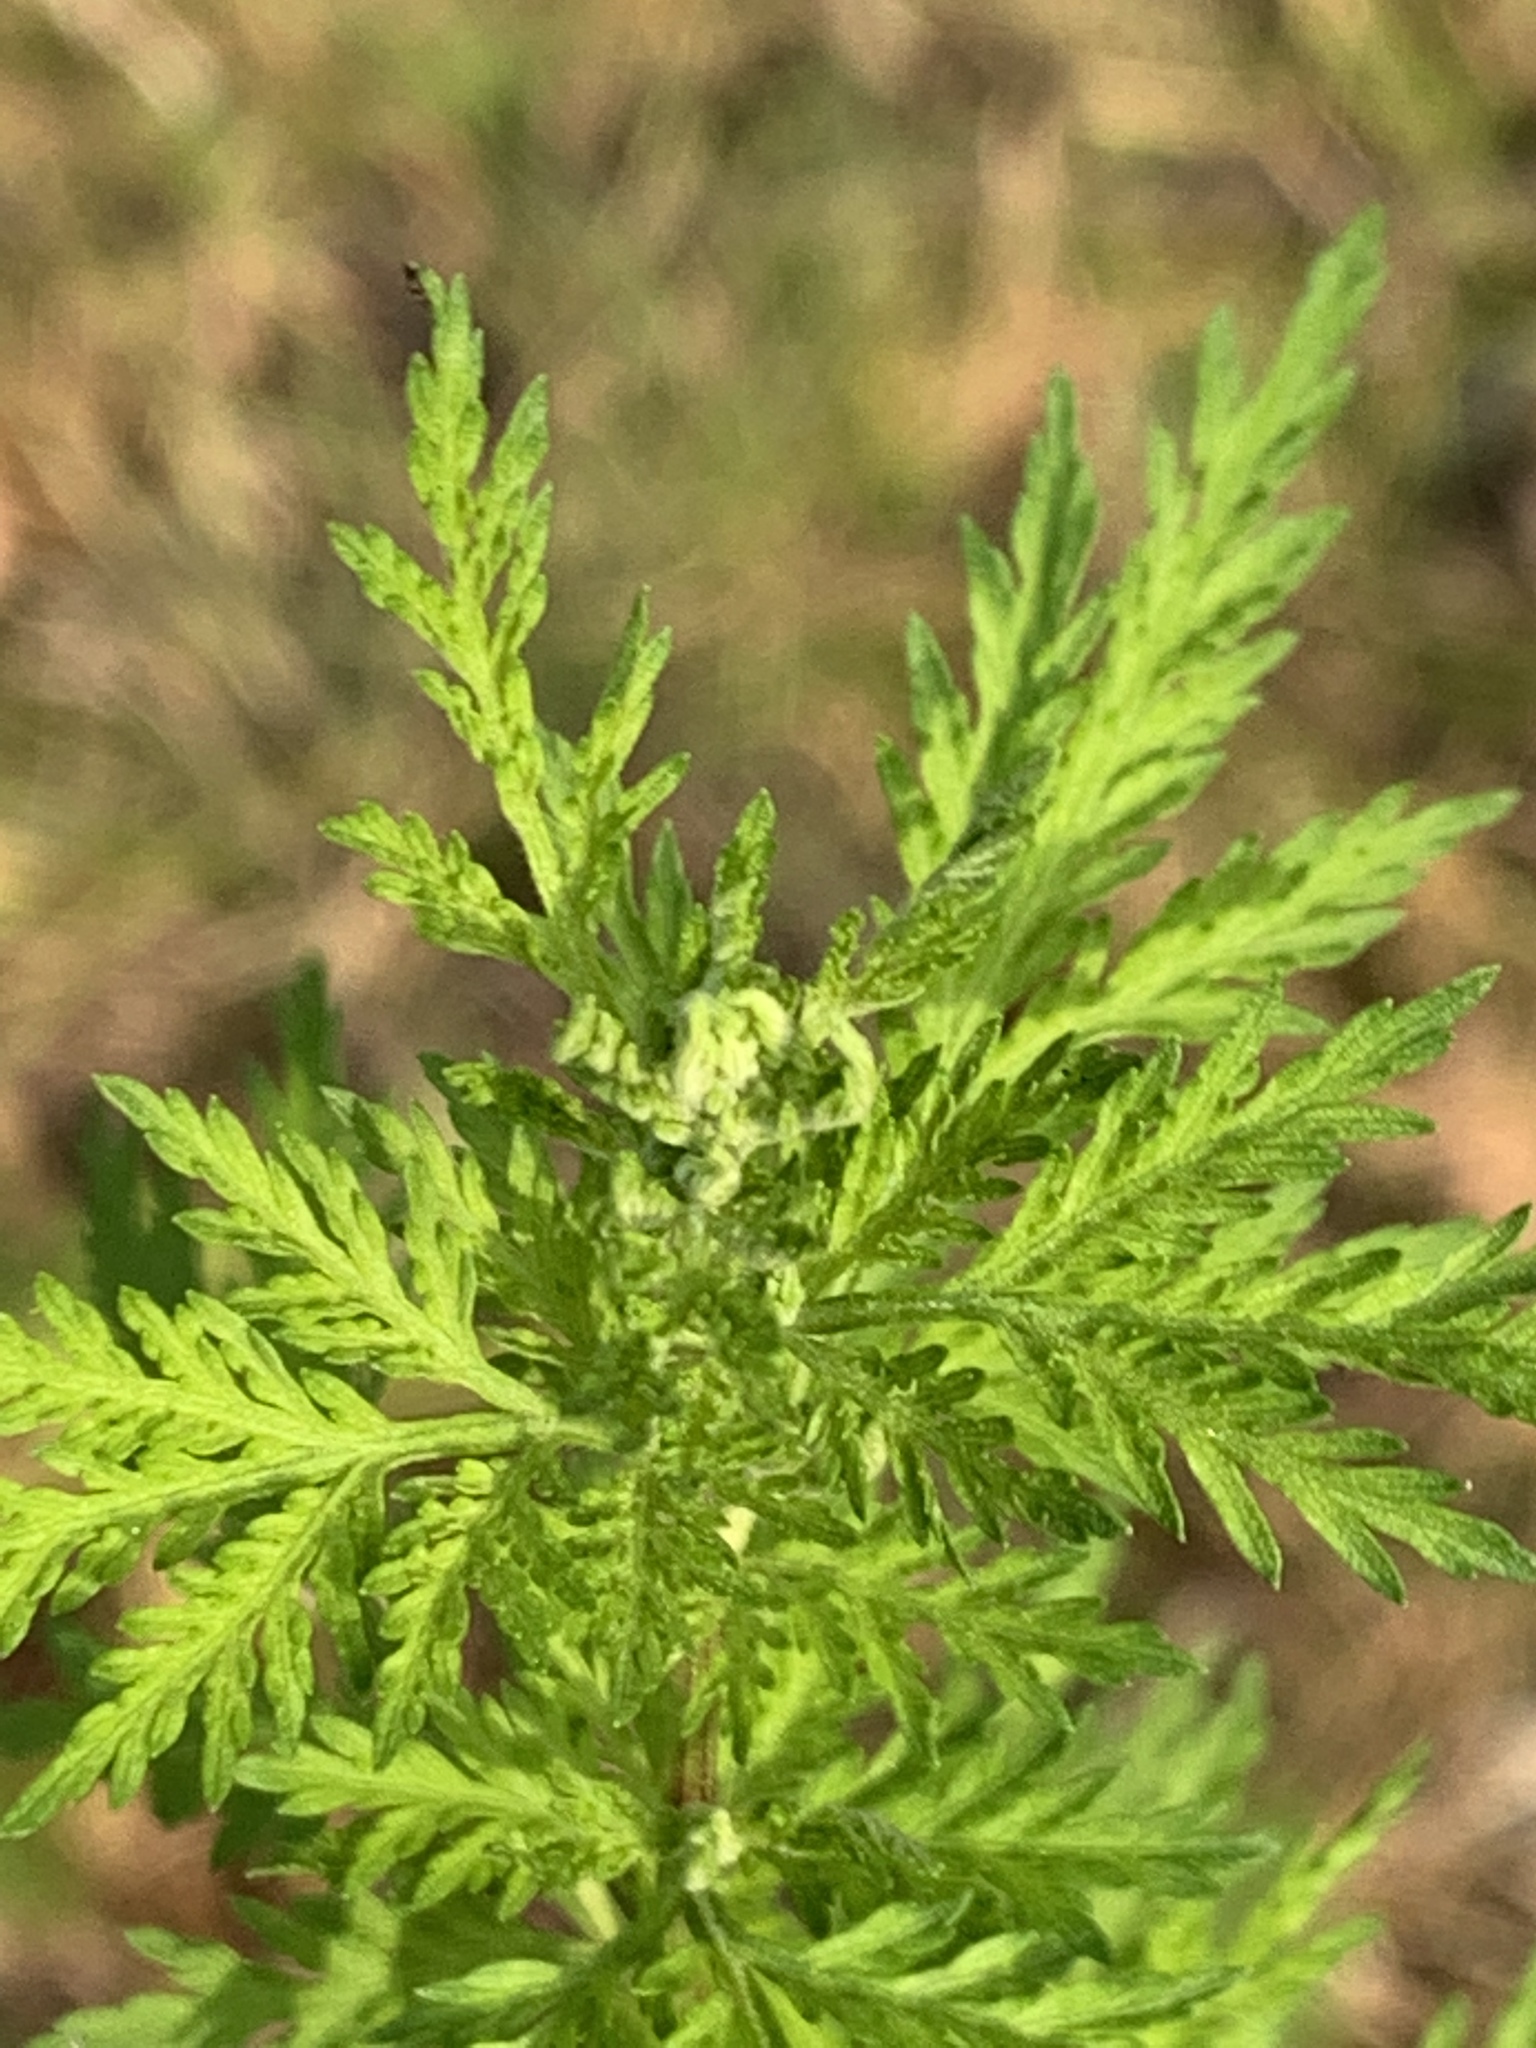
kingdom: Plantae
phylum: Tracheophyta
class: Magnoliopsida
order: Asterales
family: Asteraceae
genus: Artemisia
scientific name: Artemisia annua
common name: Sweet sagewort
